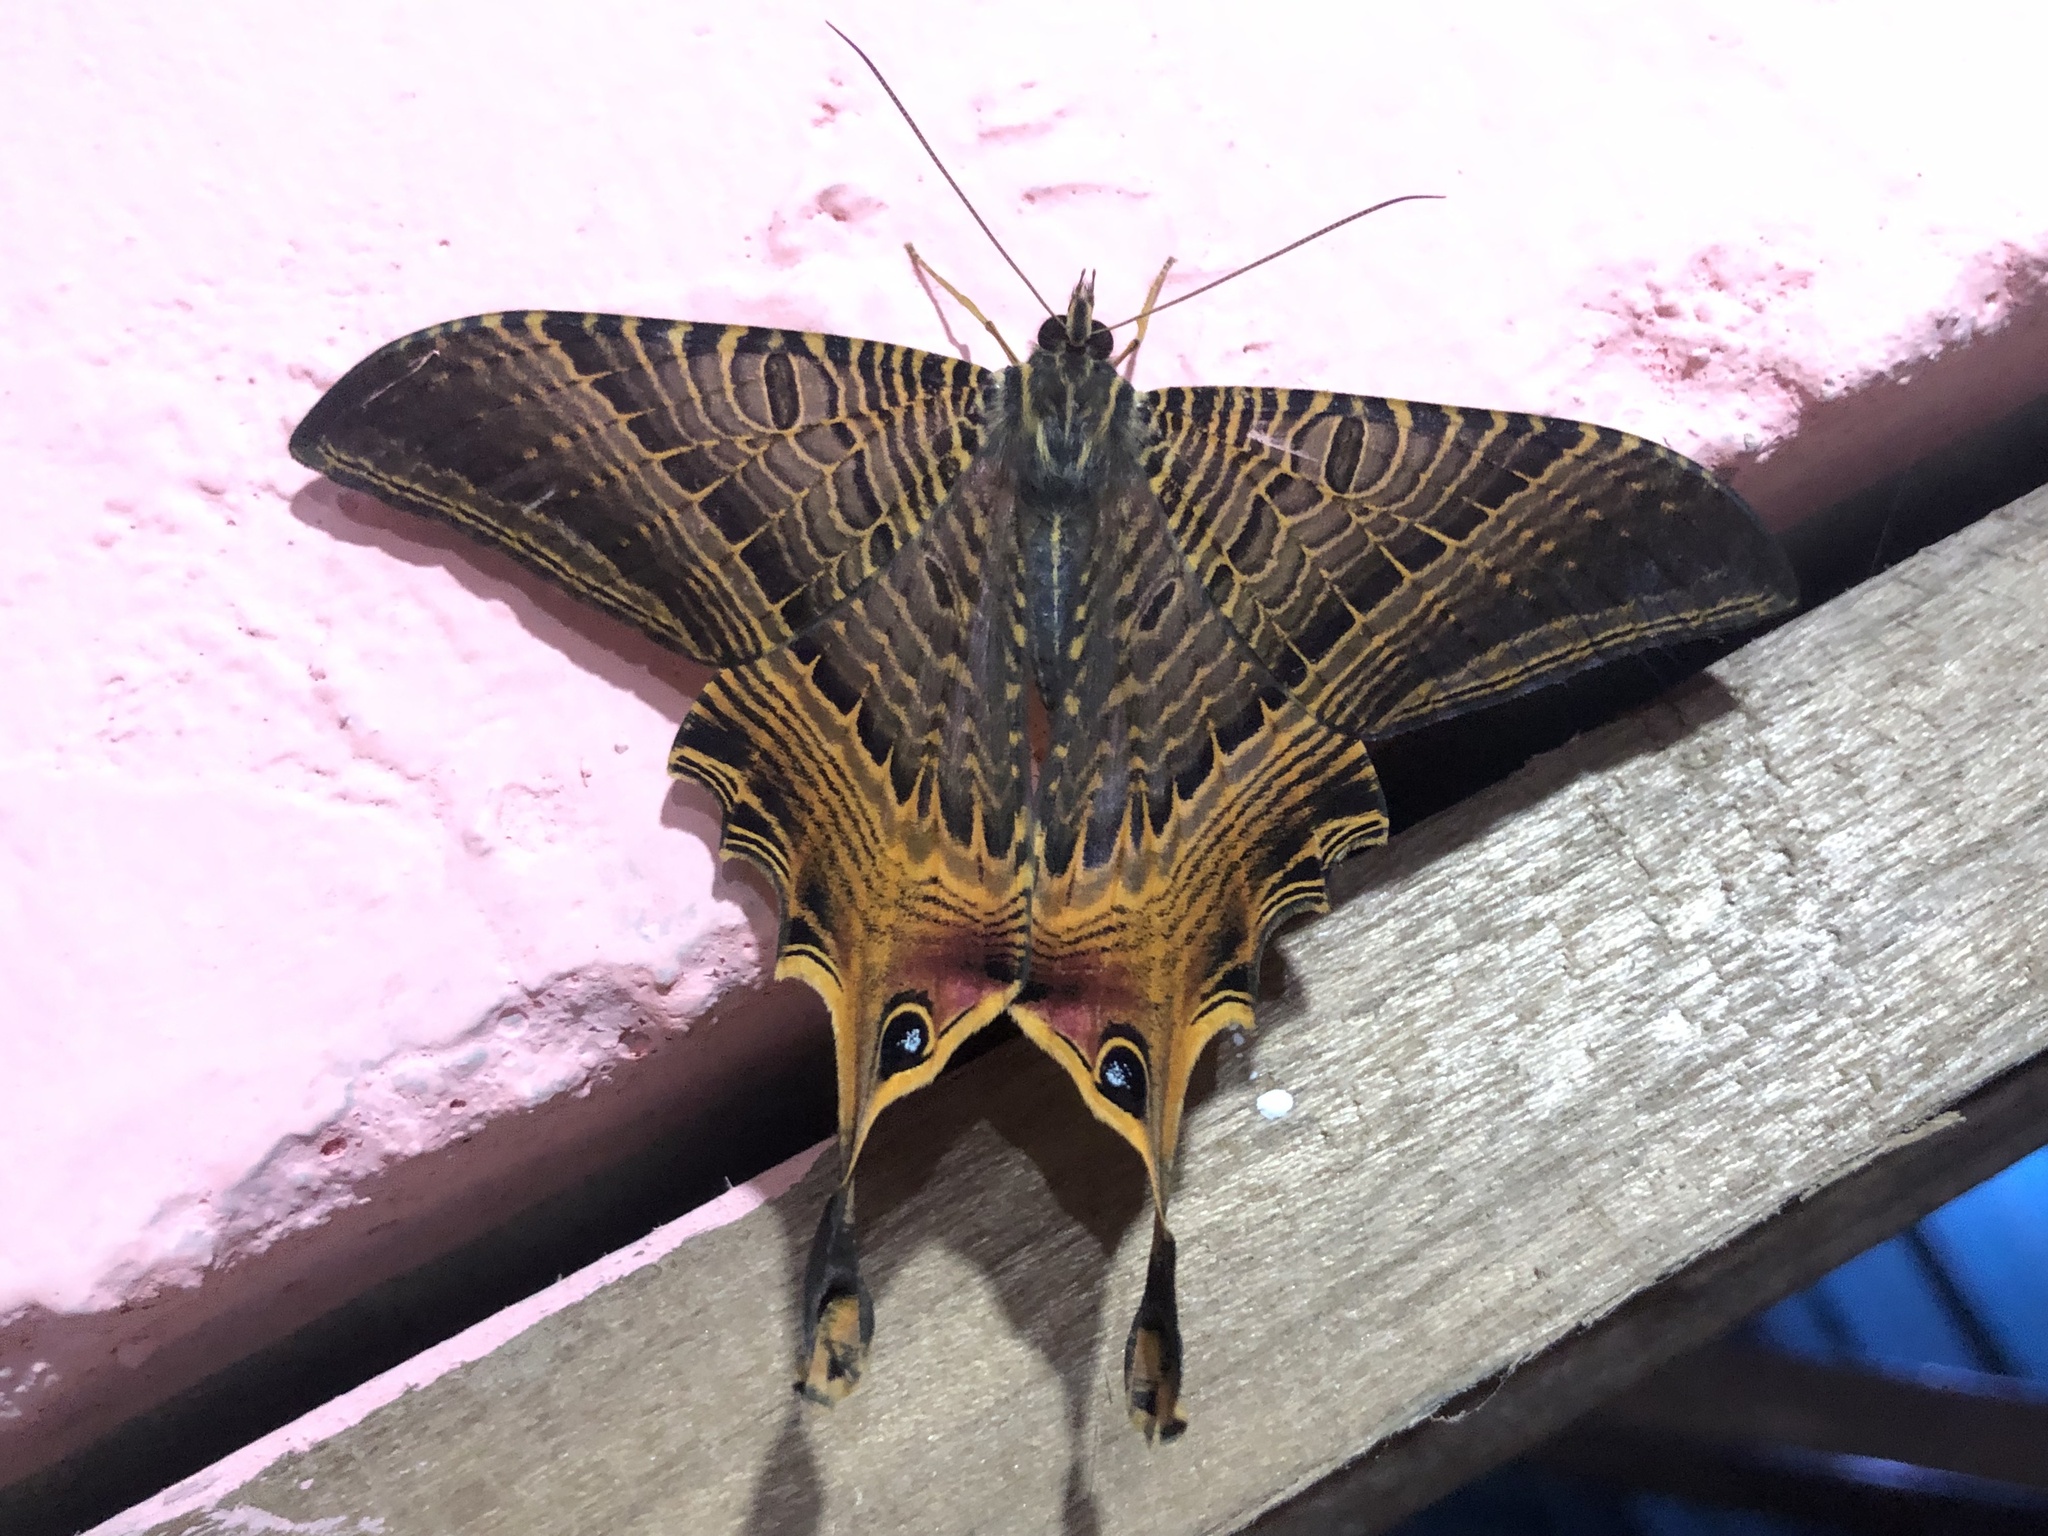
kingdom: Animalia
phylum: Arthropoda
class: Insecta
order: Lepidoptera
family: Sematuridae
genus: Nothus
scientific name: Nothus empedocles
